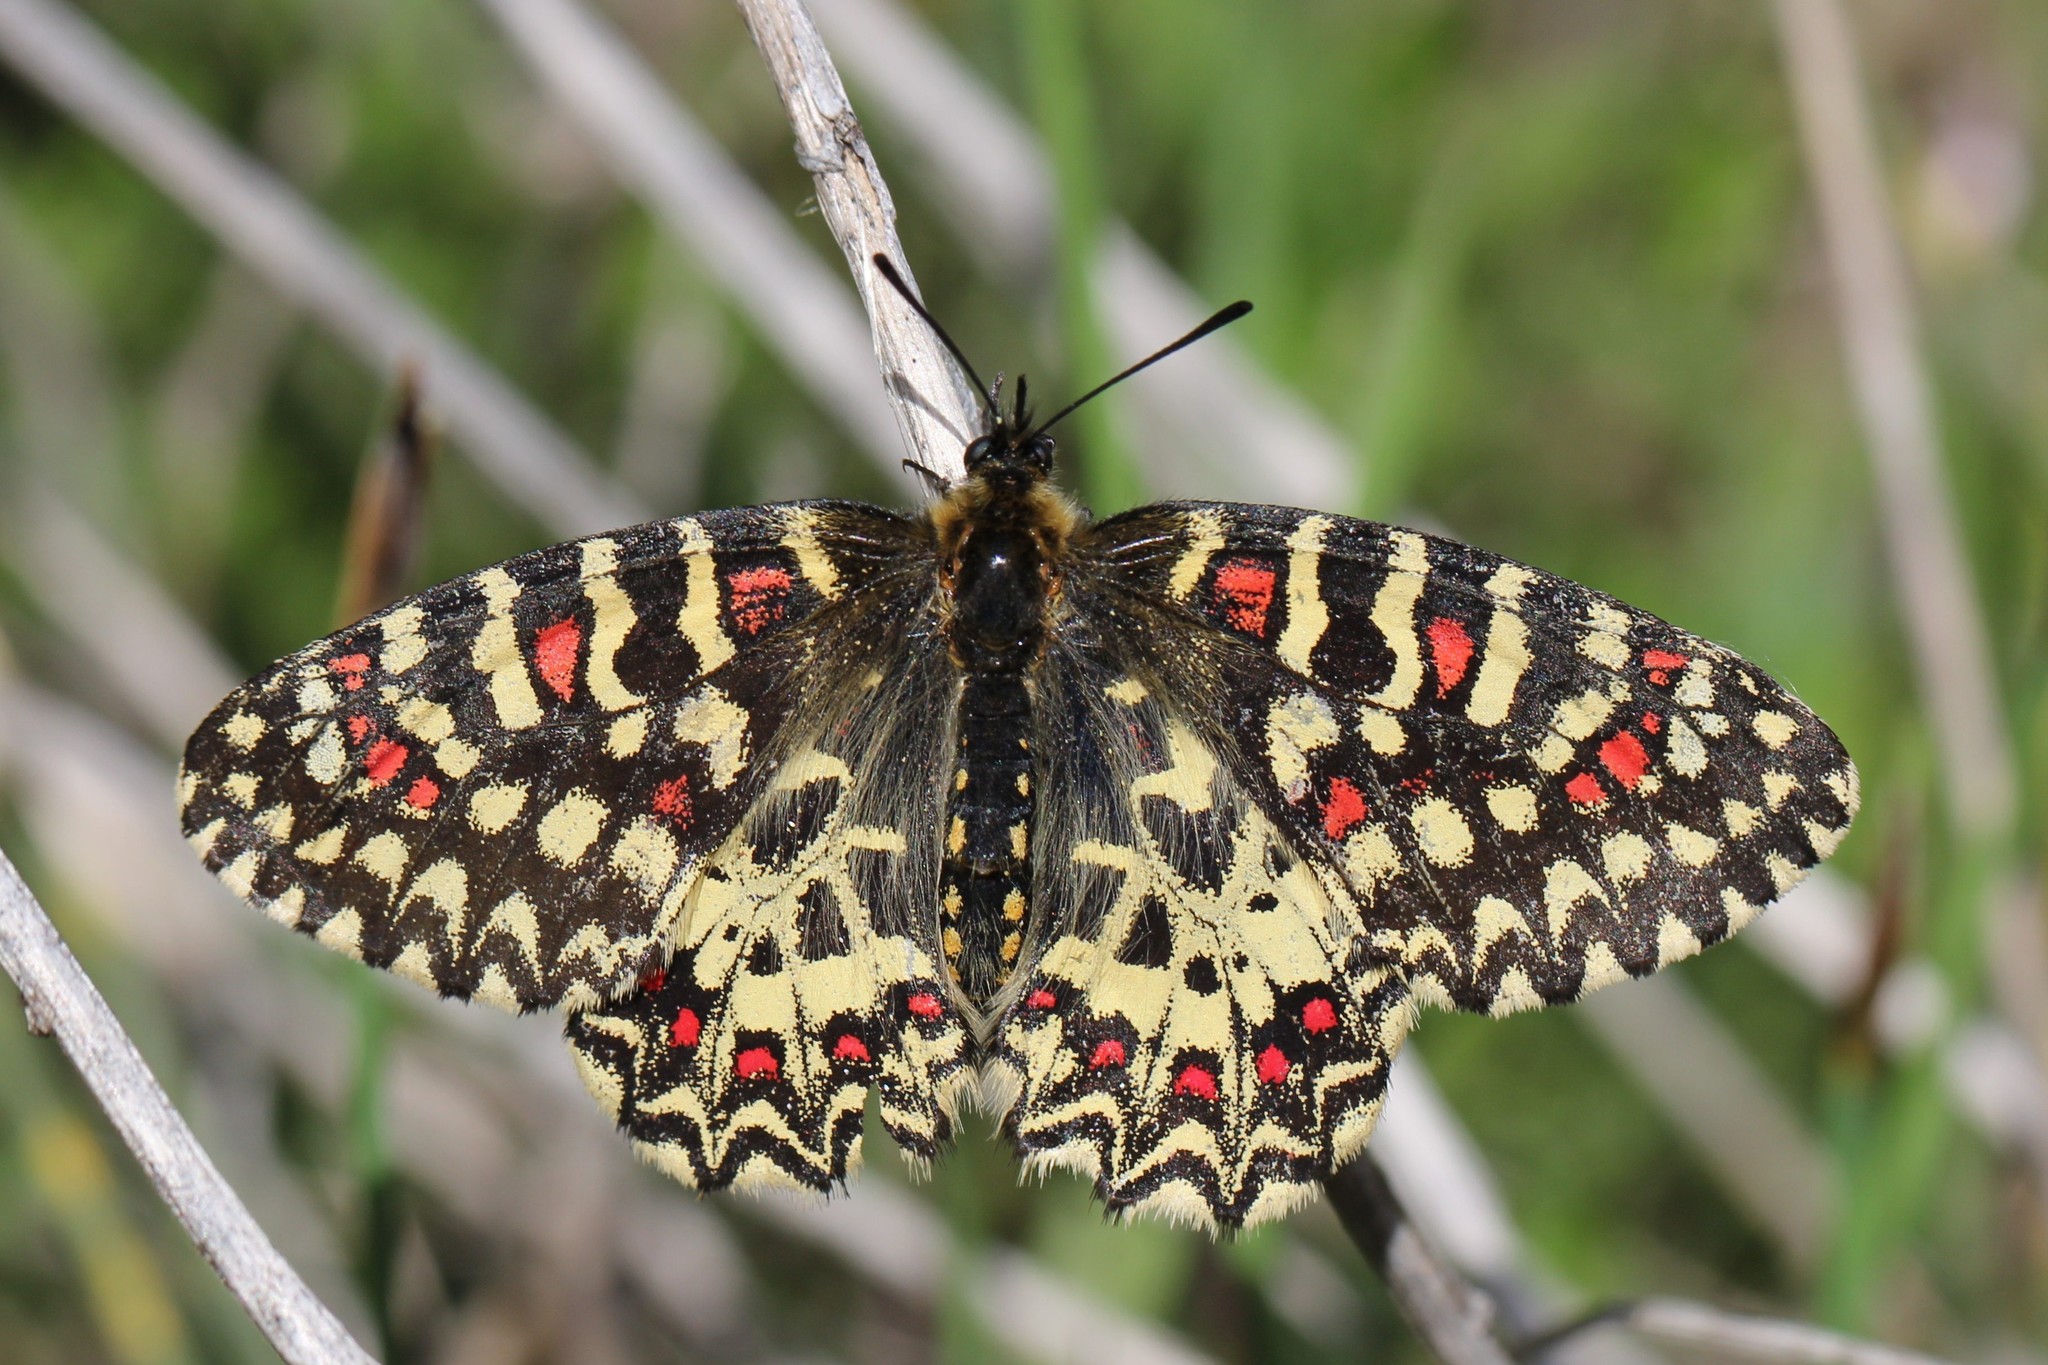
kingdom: Animalia
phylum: Arthropoda
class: Insecta
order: Lepidoptera
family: Papilionidae
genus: Zerynthia
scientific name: Zerynthia rumina
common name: Spanish festoon
